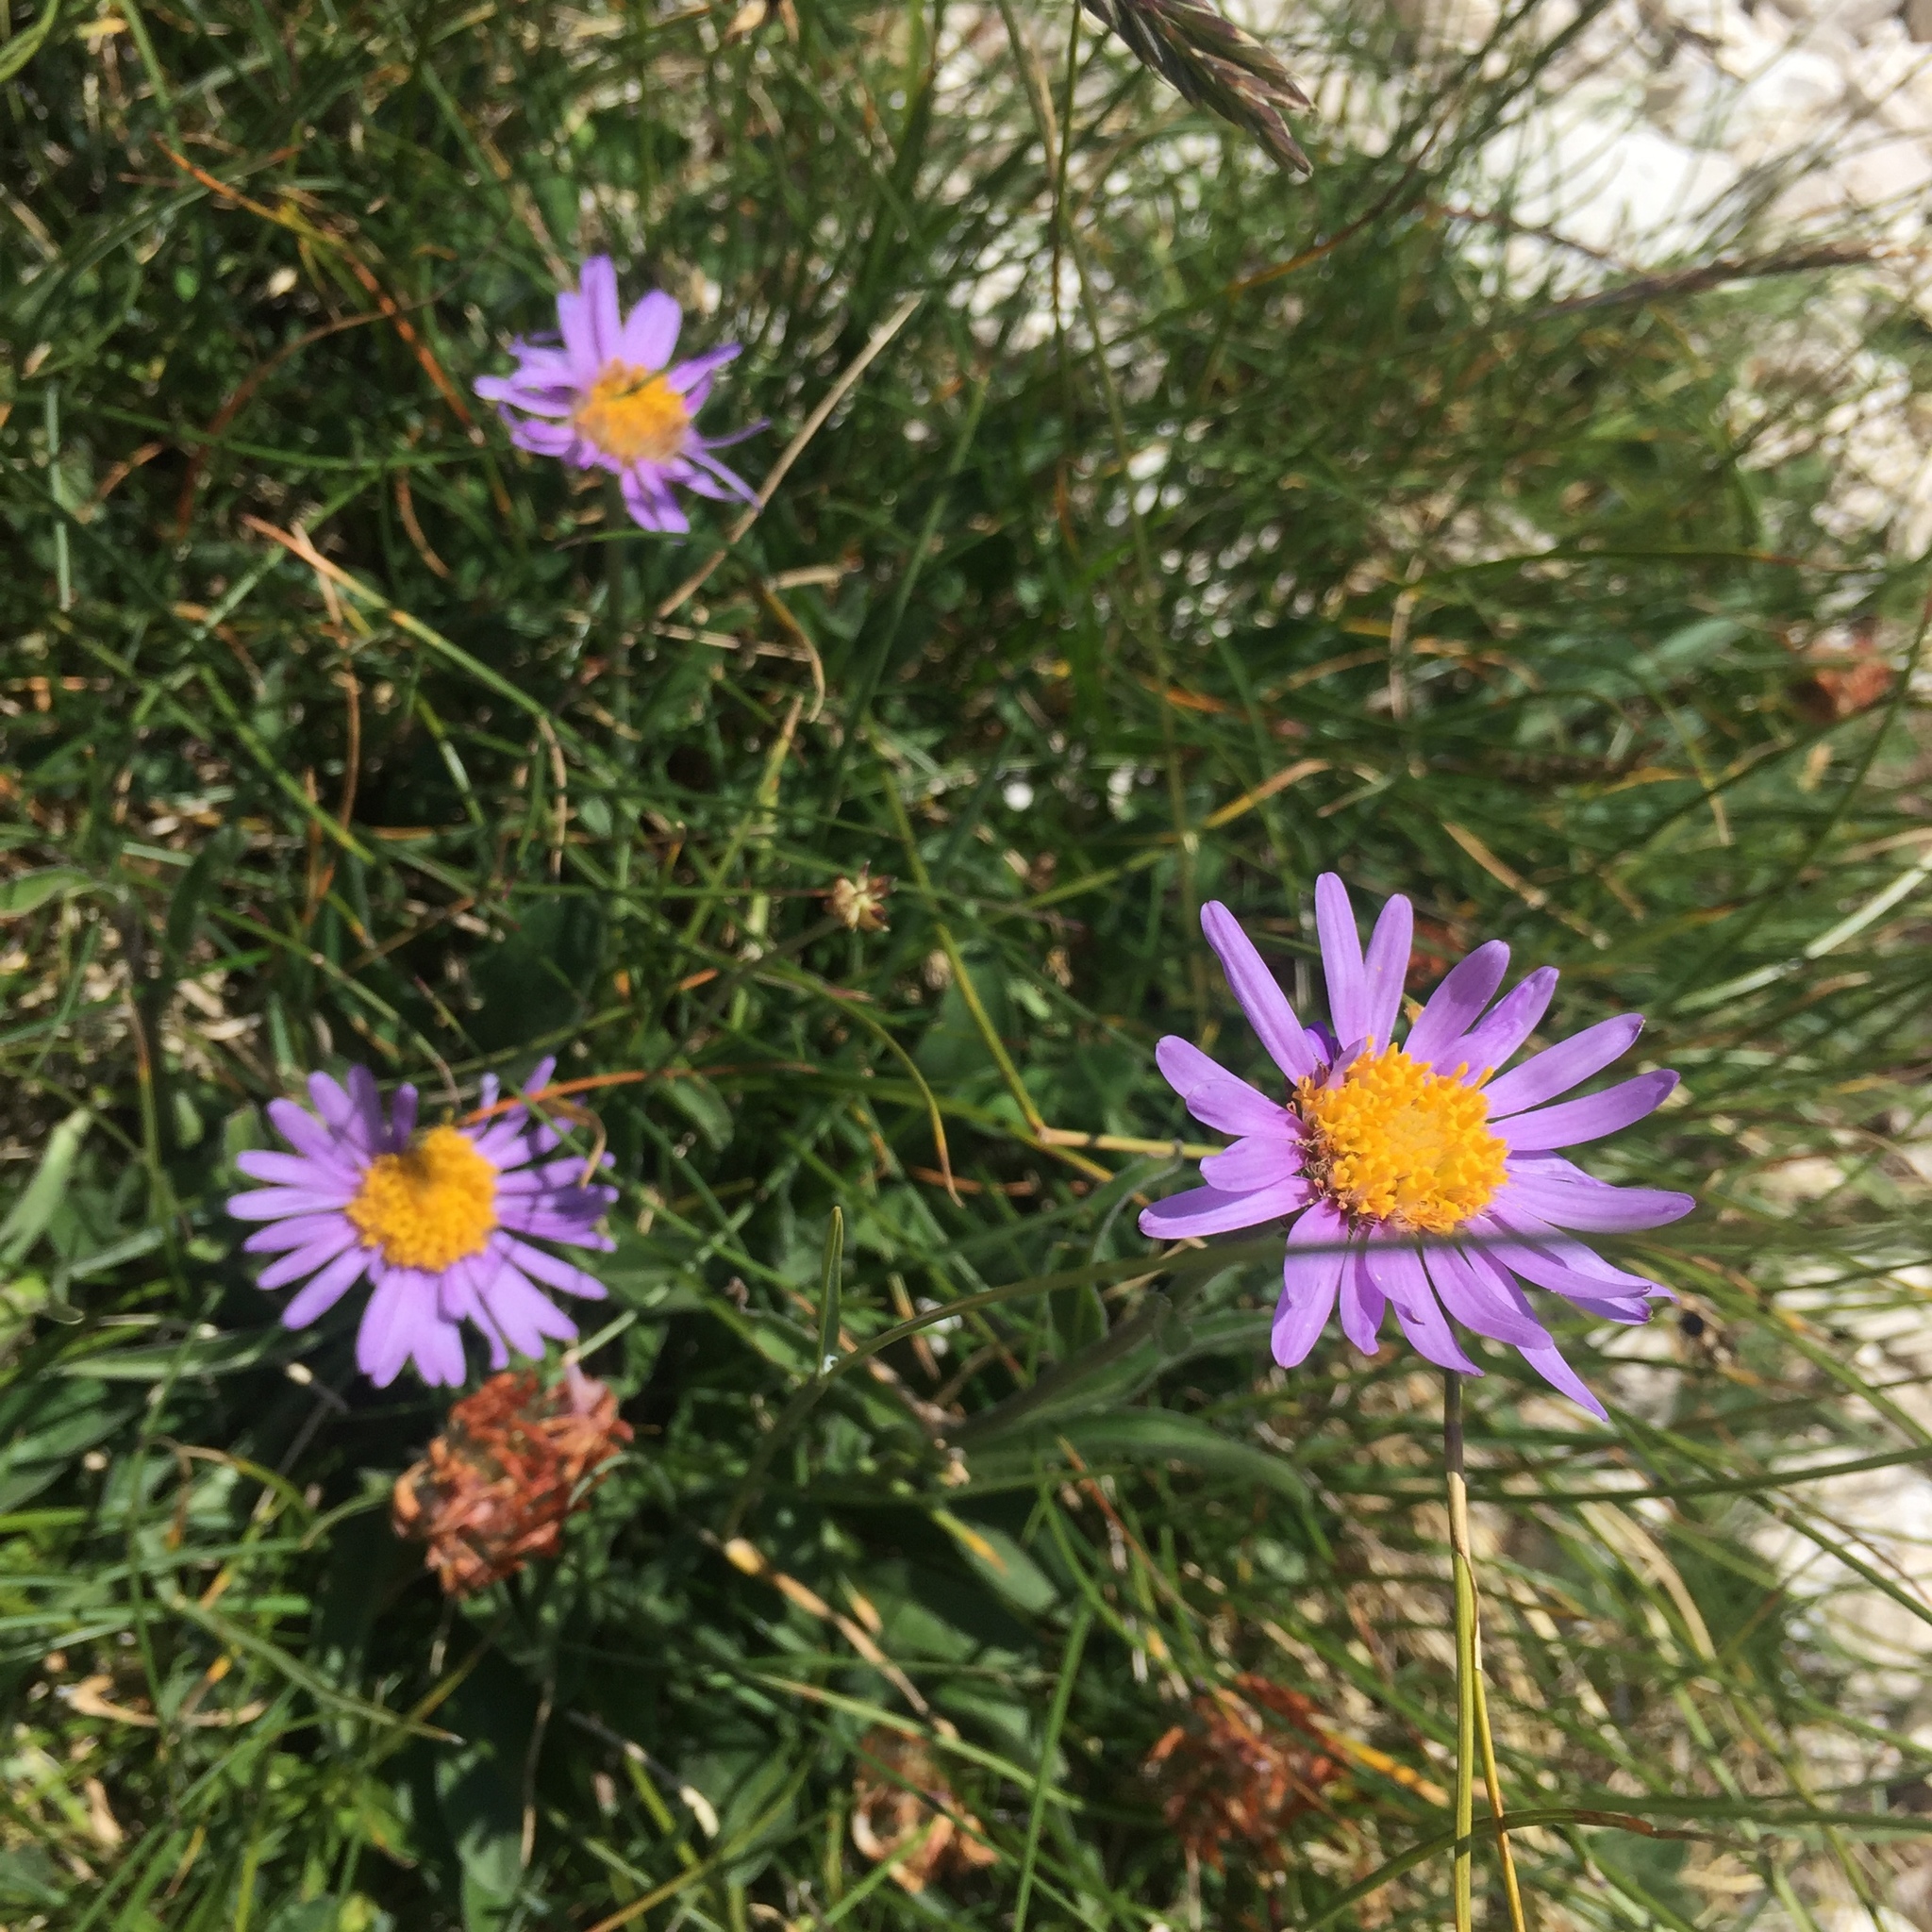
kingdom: Plantae
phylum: Tracheophyta
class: Magnoliopsida
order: Asterales
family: Asteraceae
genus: Aster
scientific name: Aster alpinus
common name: Alpine aster
